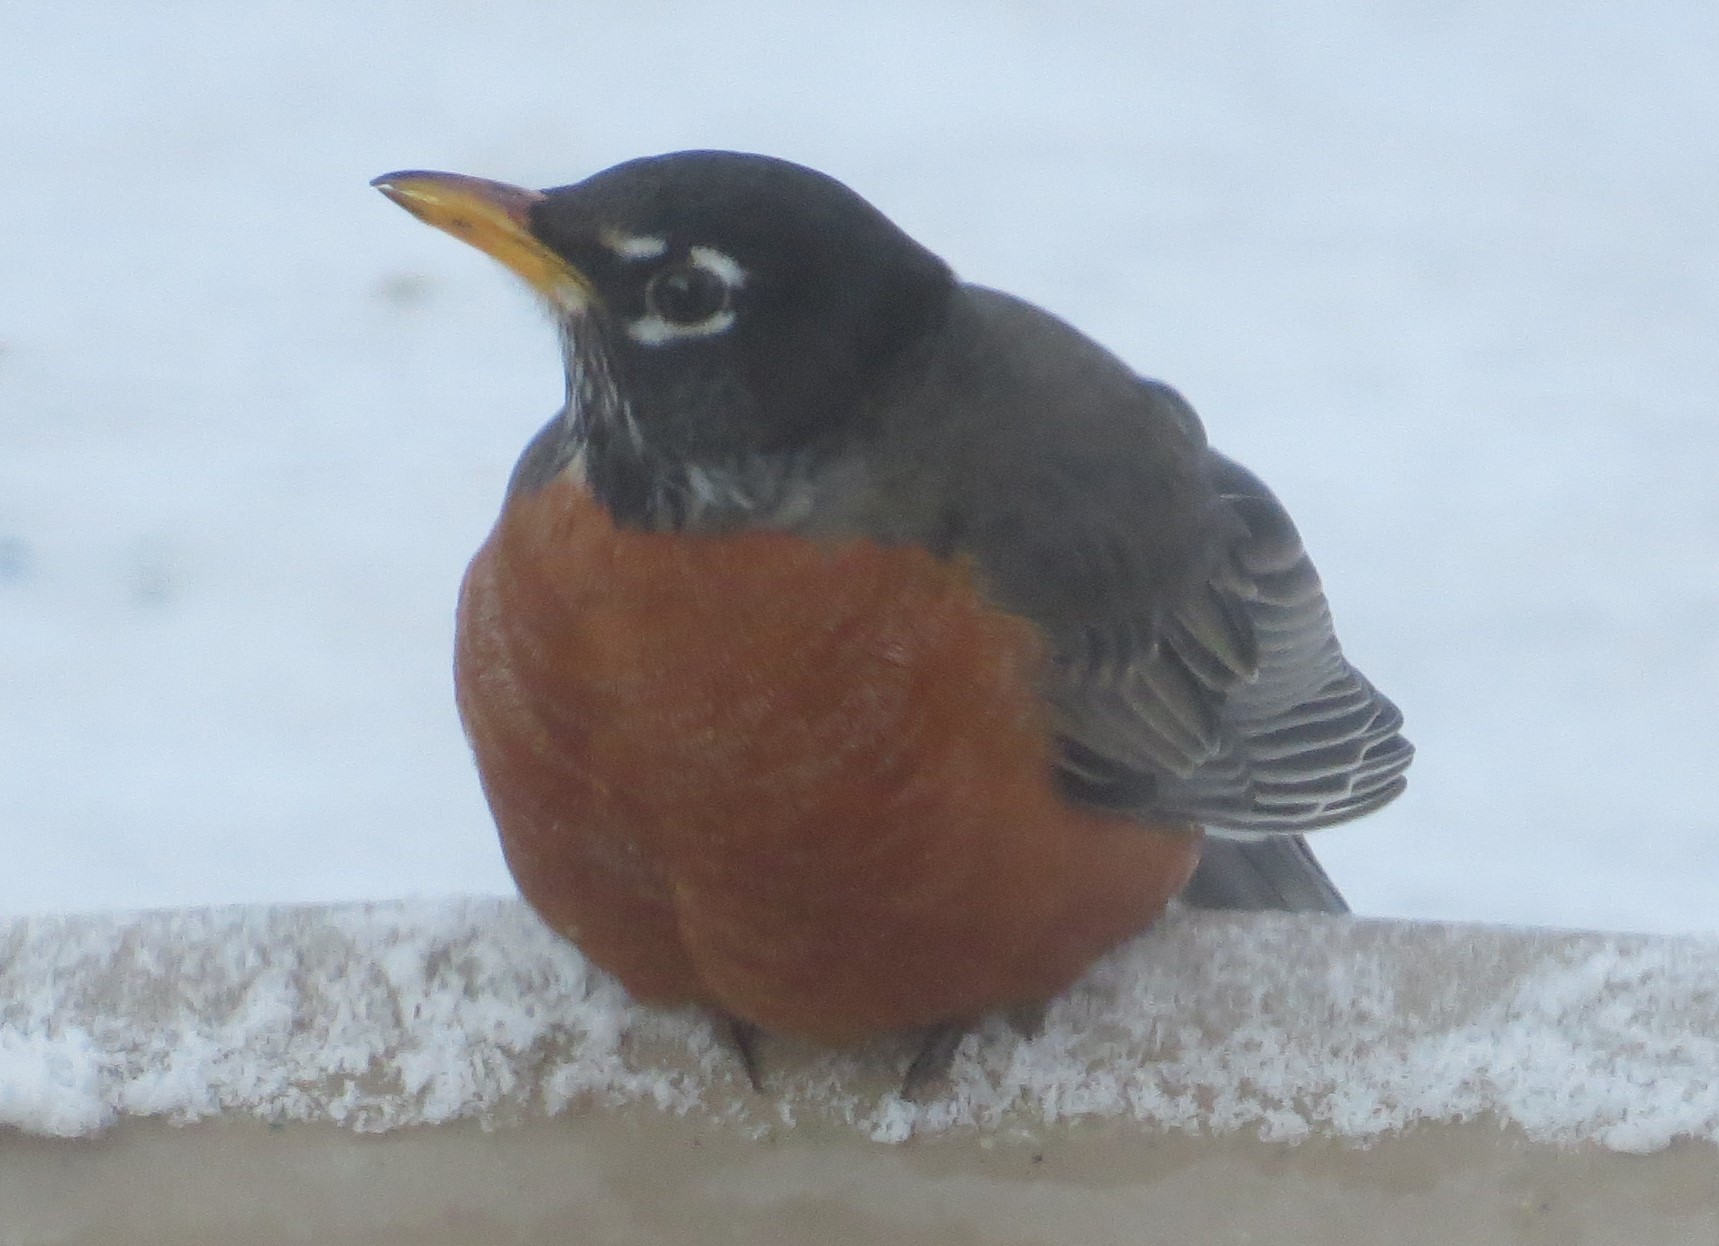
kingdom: Animalia
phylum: Chordata
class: Aves
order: Passeriformes
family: Turdidae
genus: Turdus
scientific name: Turdus migratorius
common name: American robin
